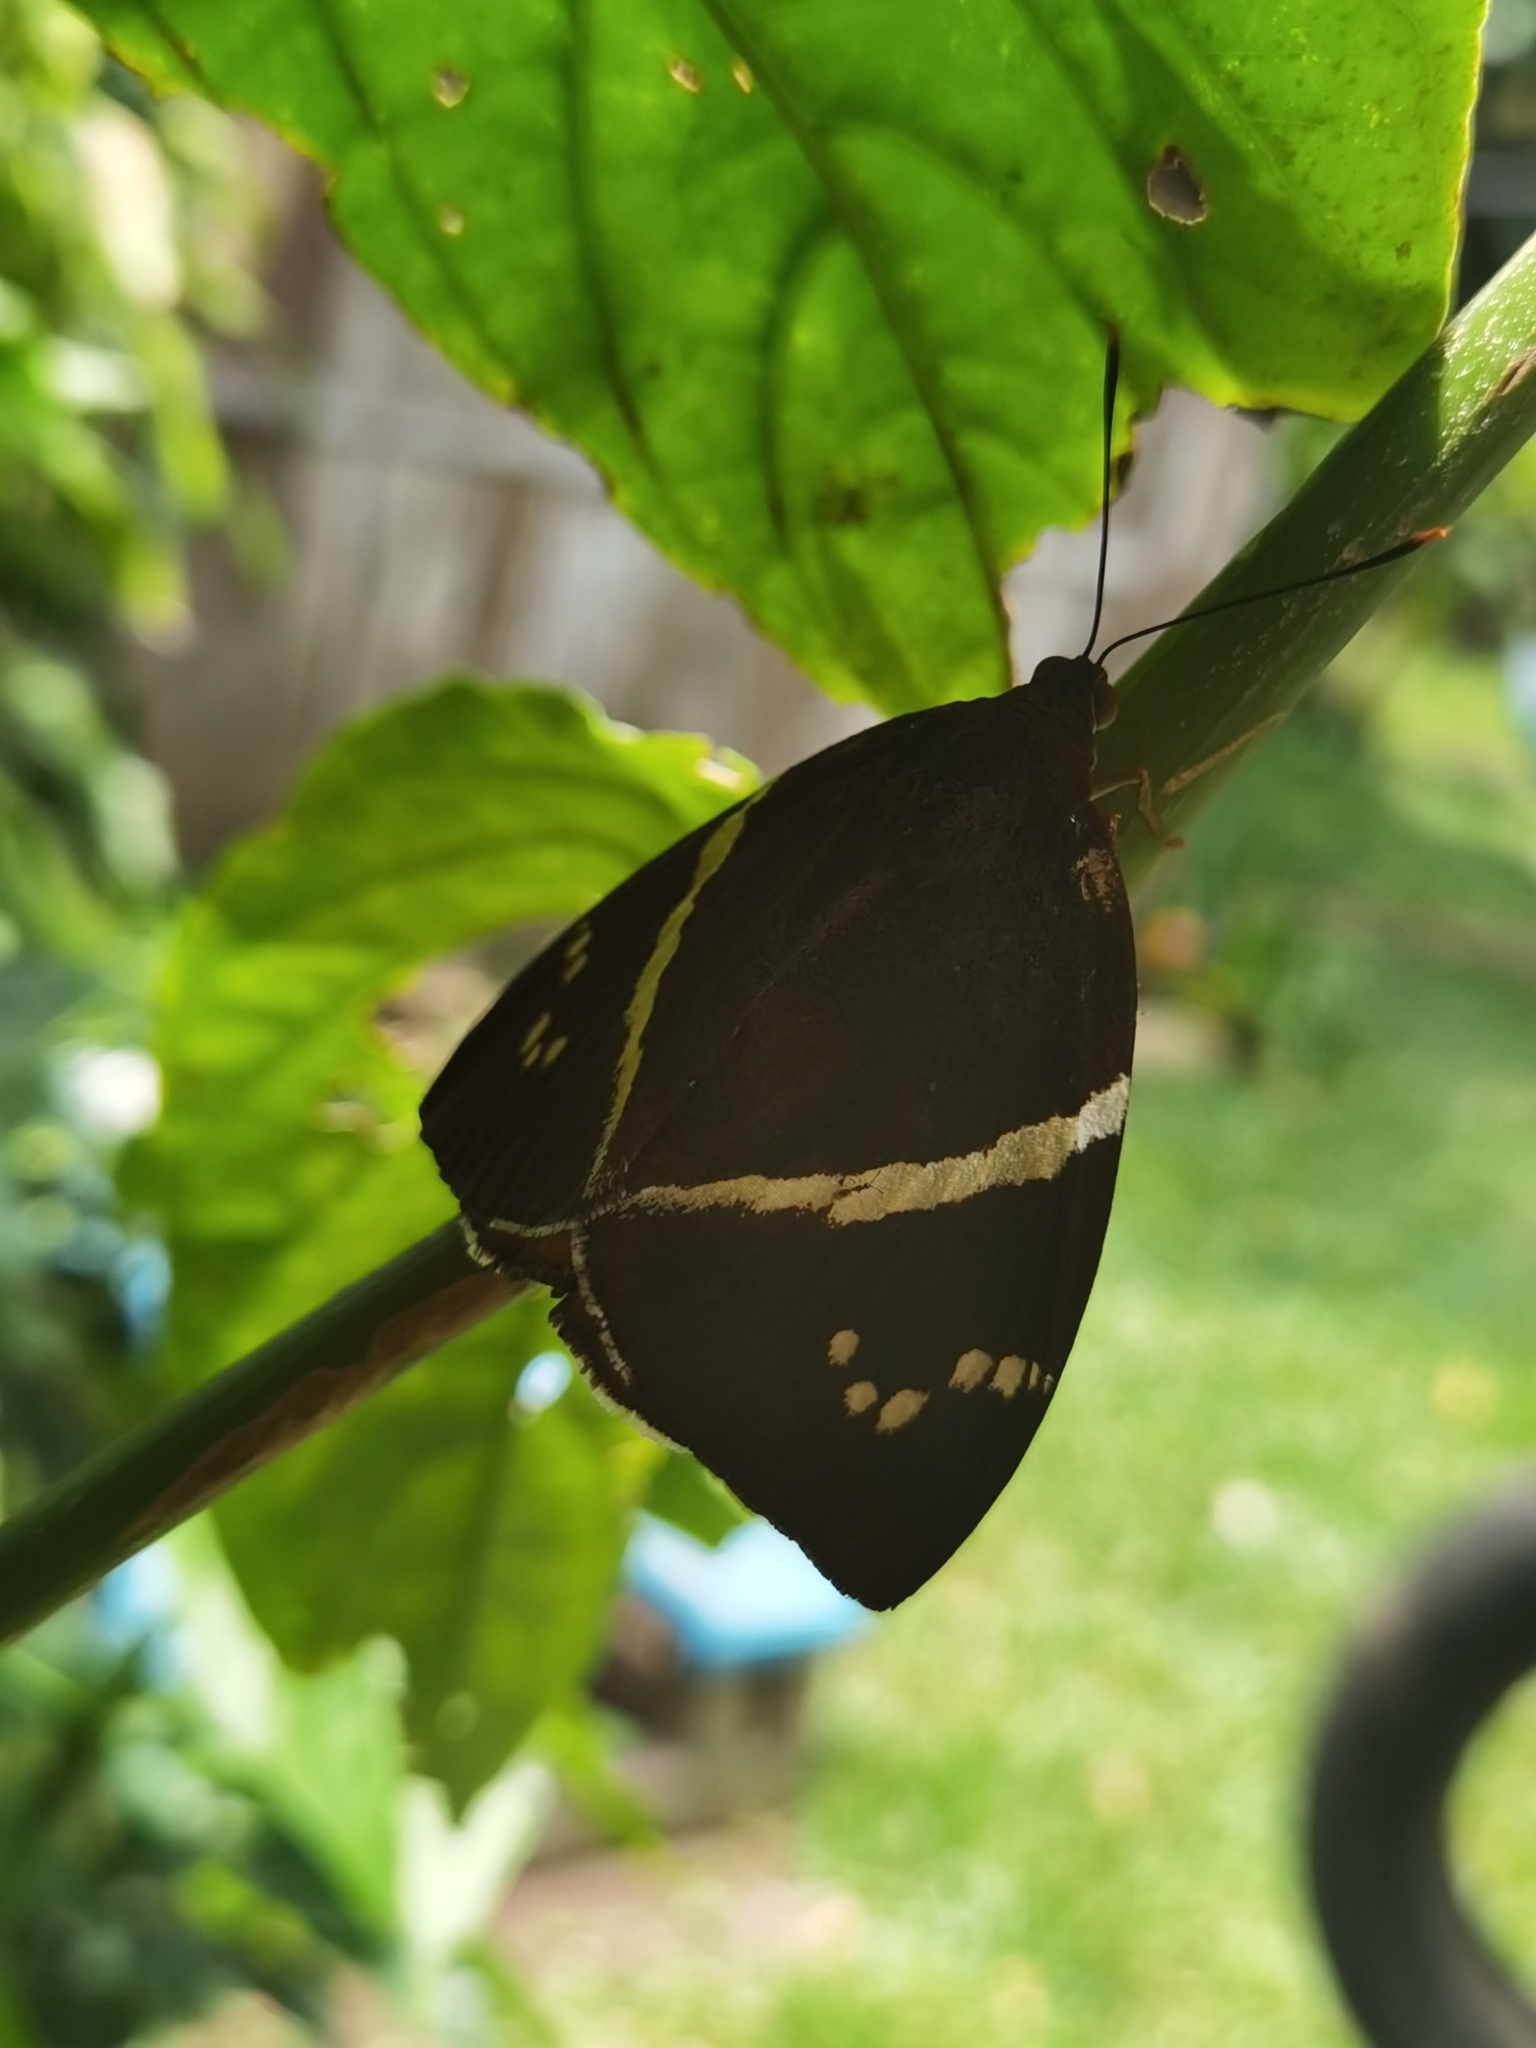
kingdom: Animalia
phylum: Arthropoda
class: Insecta
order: Lepidoptera
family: Castniidae
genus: Castniomera
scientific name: Castniomera atymnius
